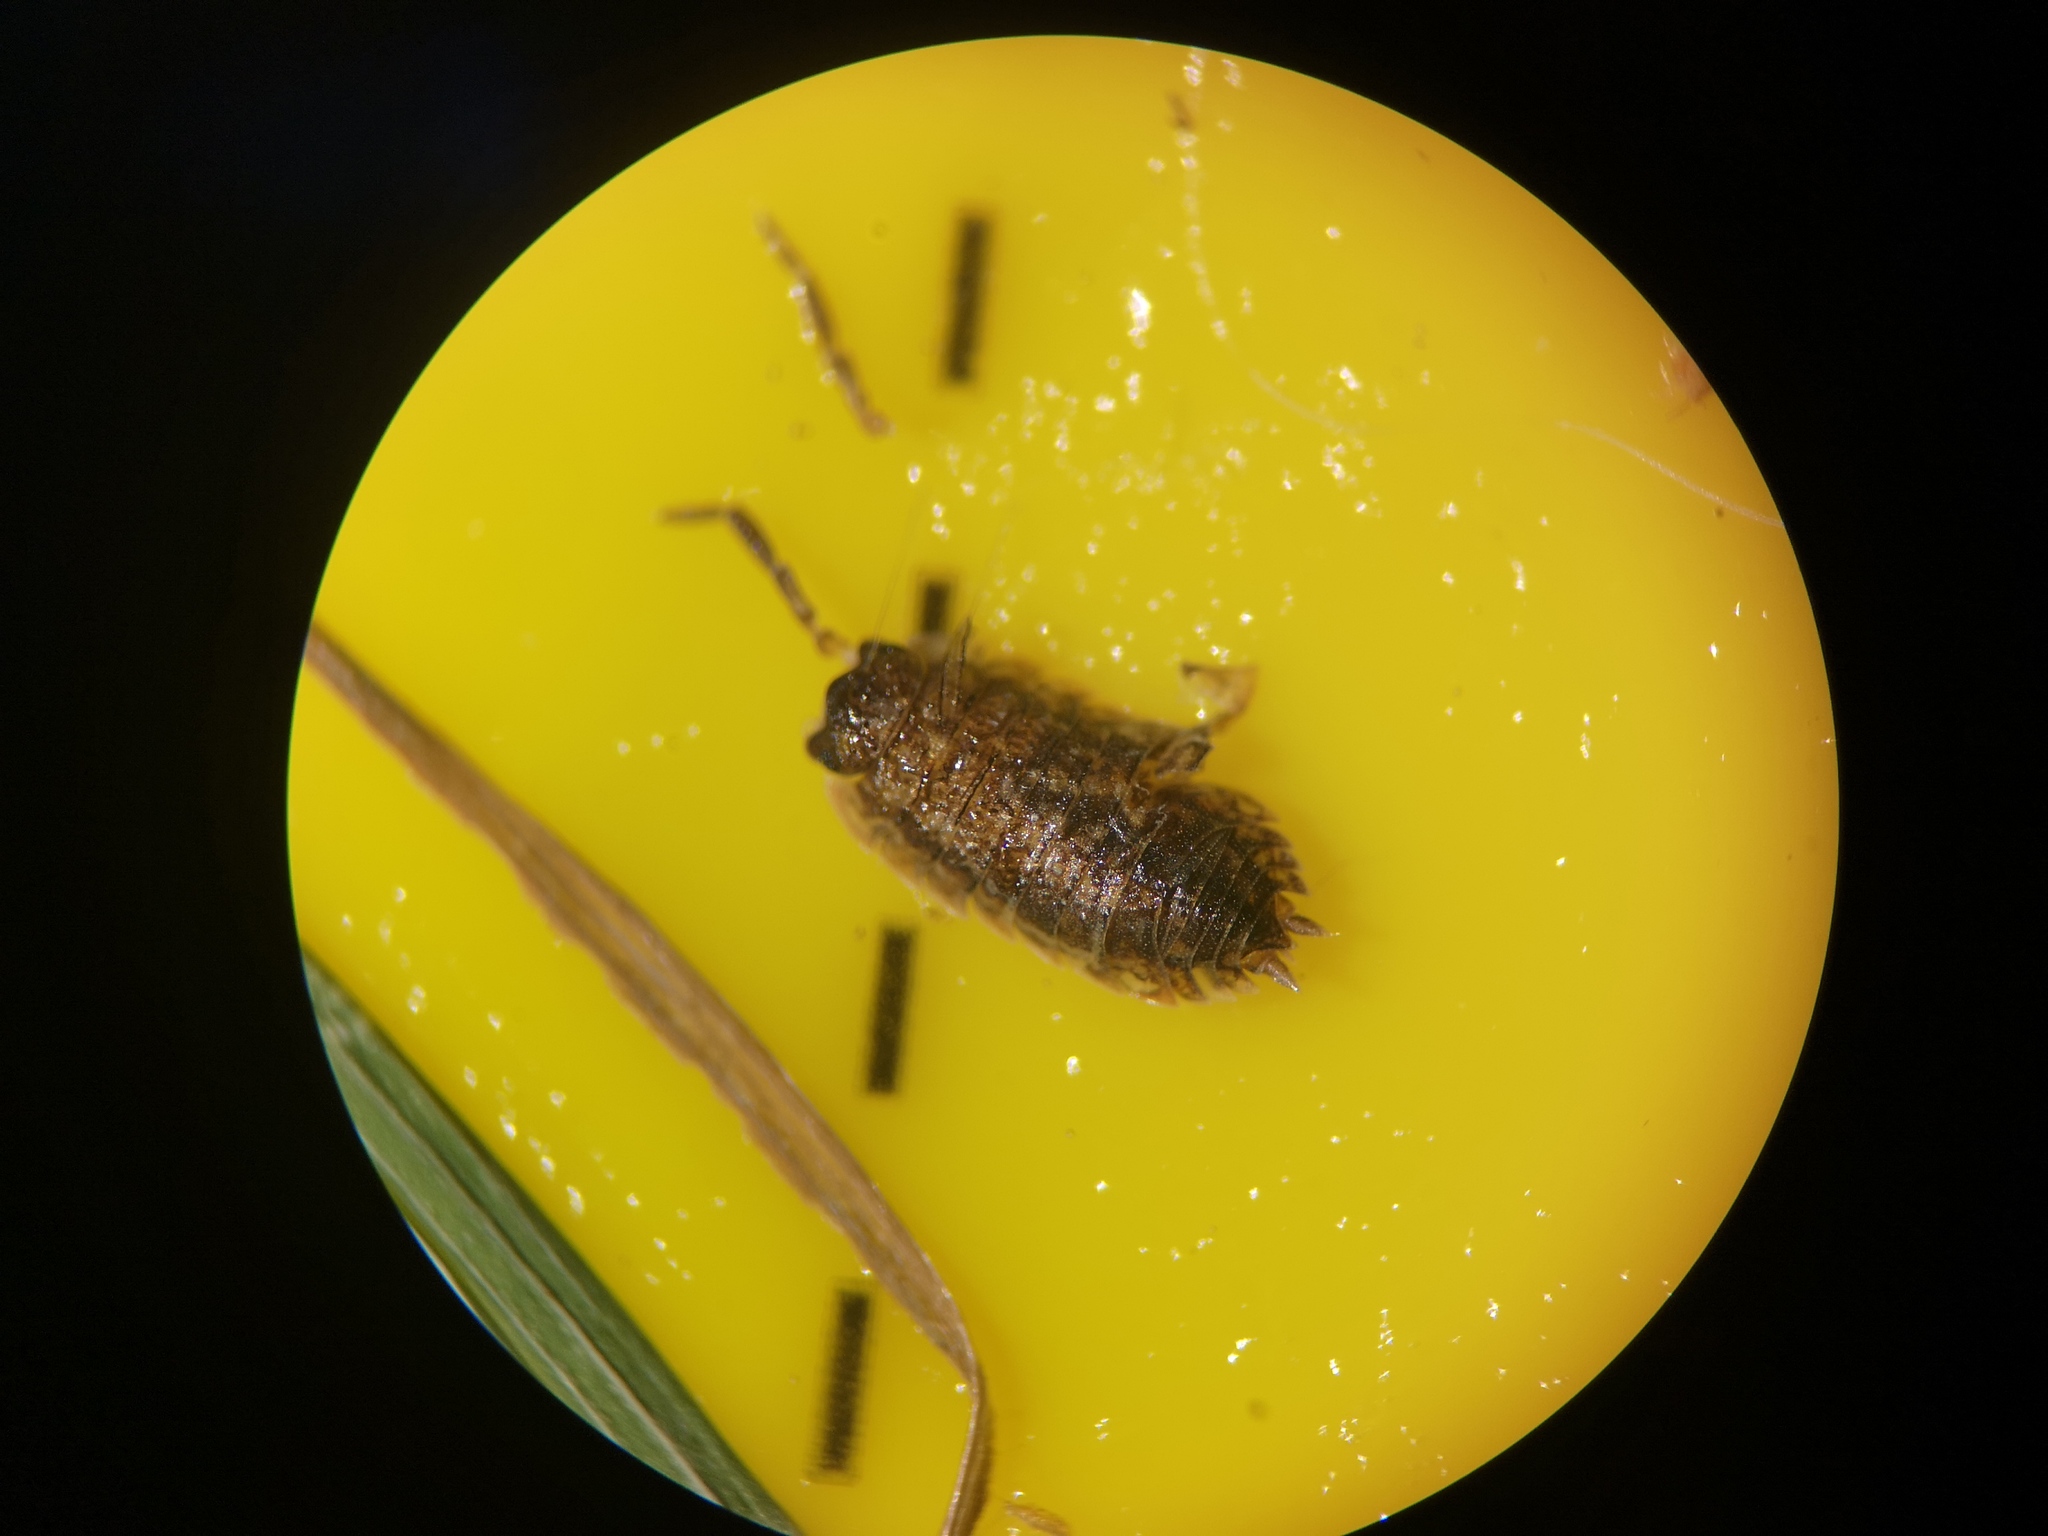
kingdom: Animalia
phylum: Arthropoda
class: Malacostraca
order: Isopoda
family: Porcellionidae
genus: Porcellio
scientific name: Porcellio scaber
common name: Common rough woodlouse
